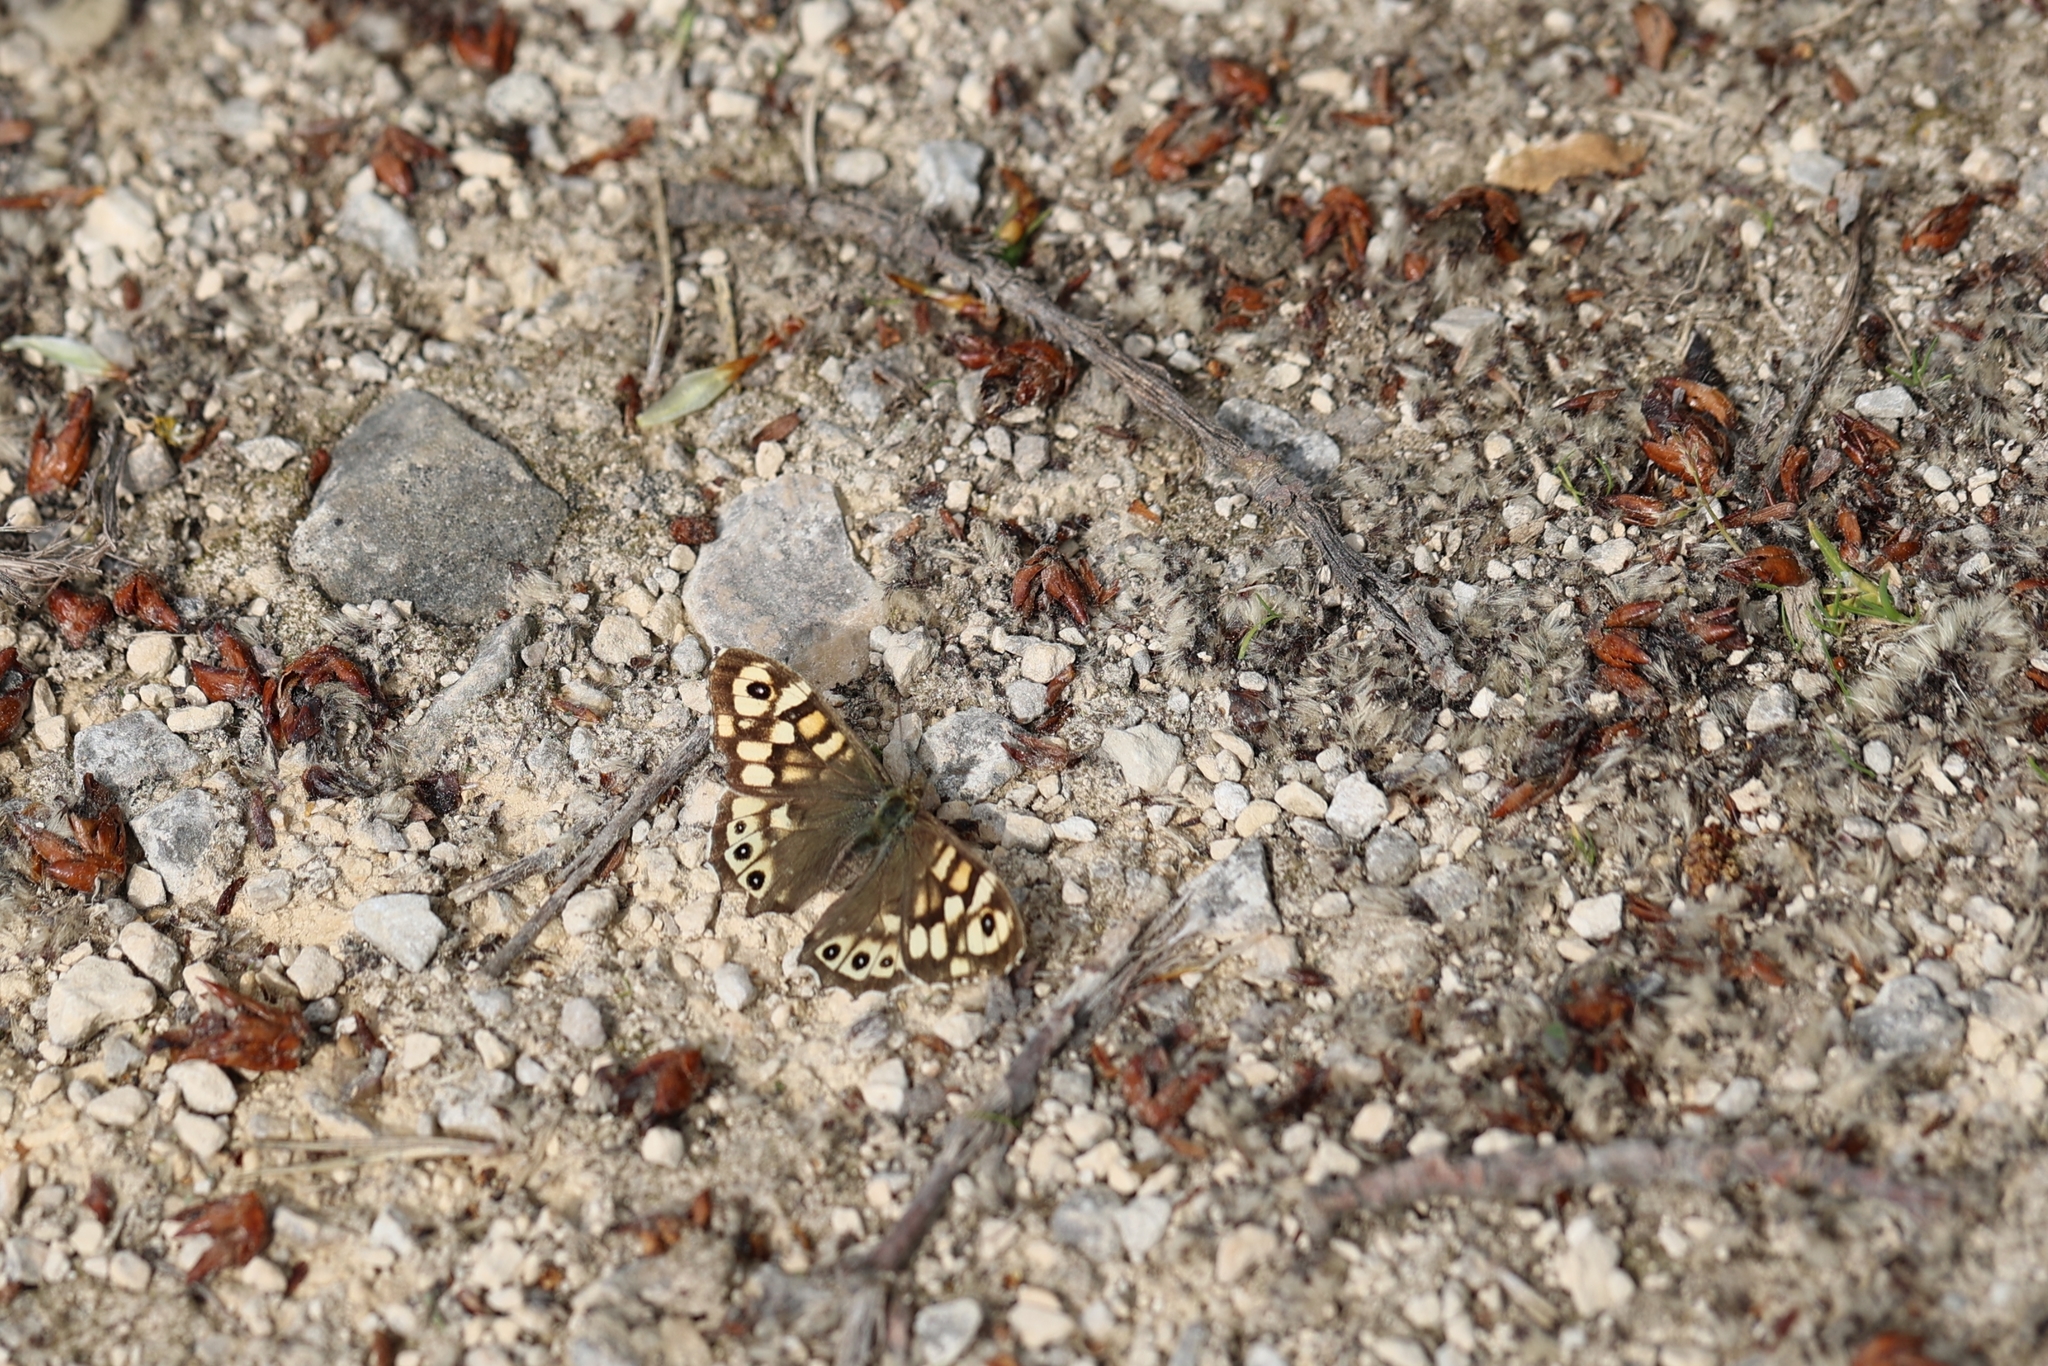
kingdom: Animalia
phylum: Arthropoda
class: Insecta
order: Lepidoptera
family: Nymphalidae
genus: Pararge
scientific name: Pararge aegeria
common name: Speckled wood
